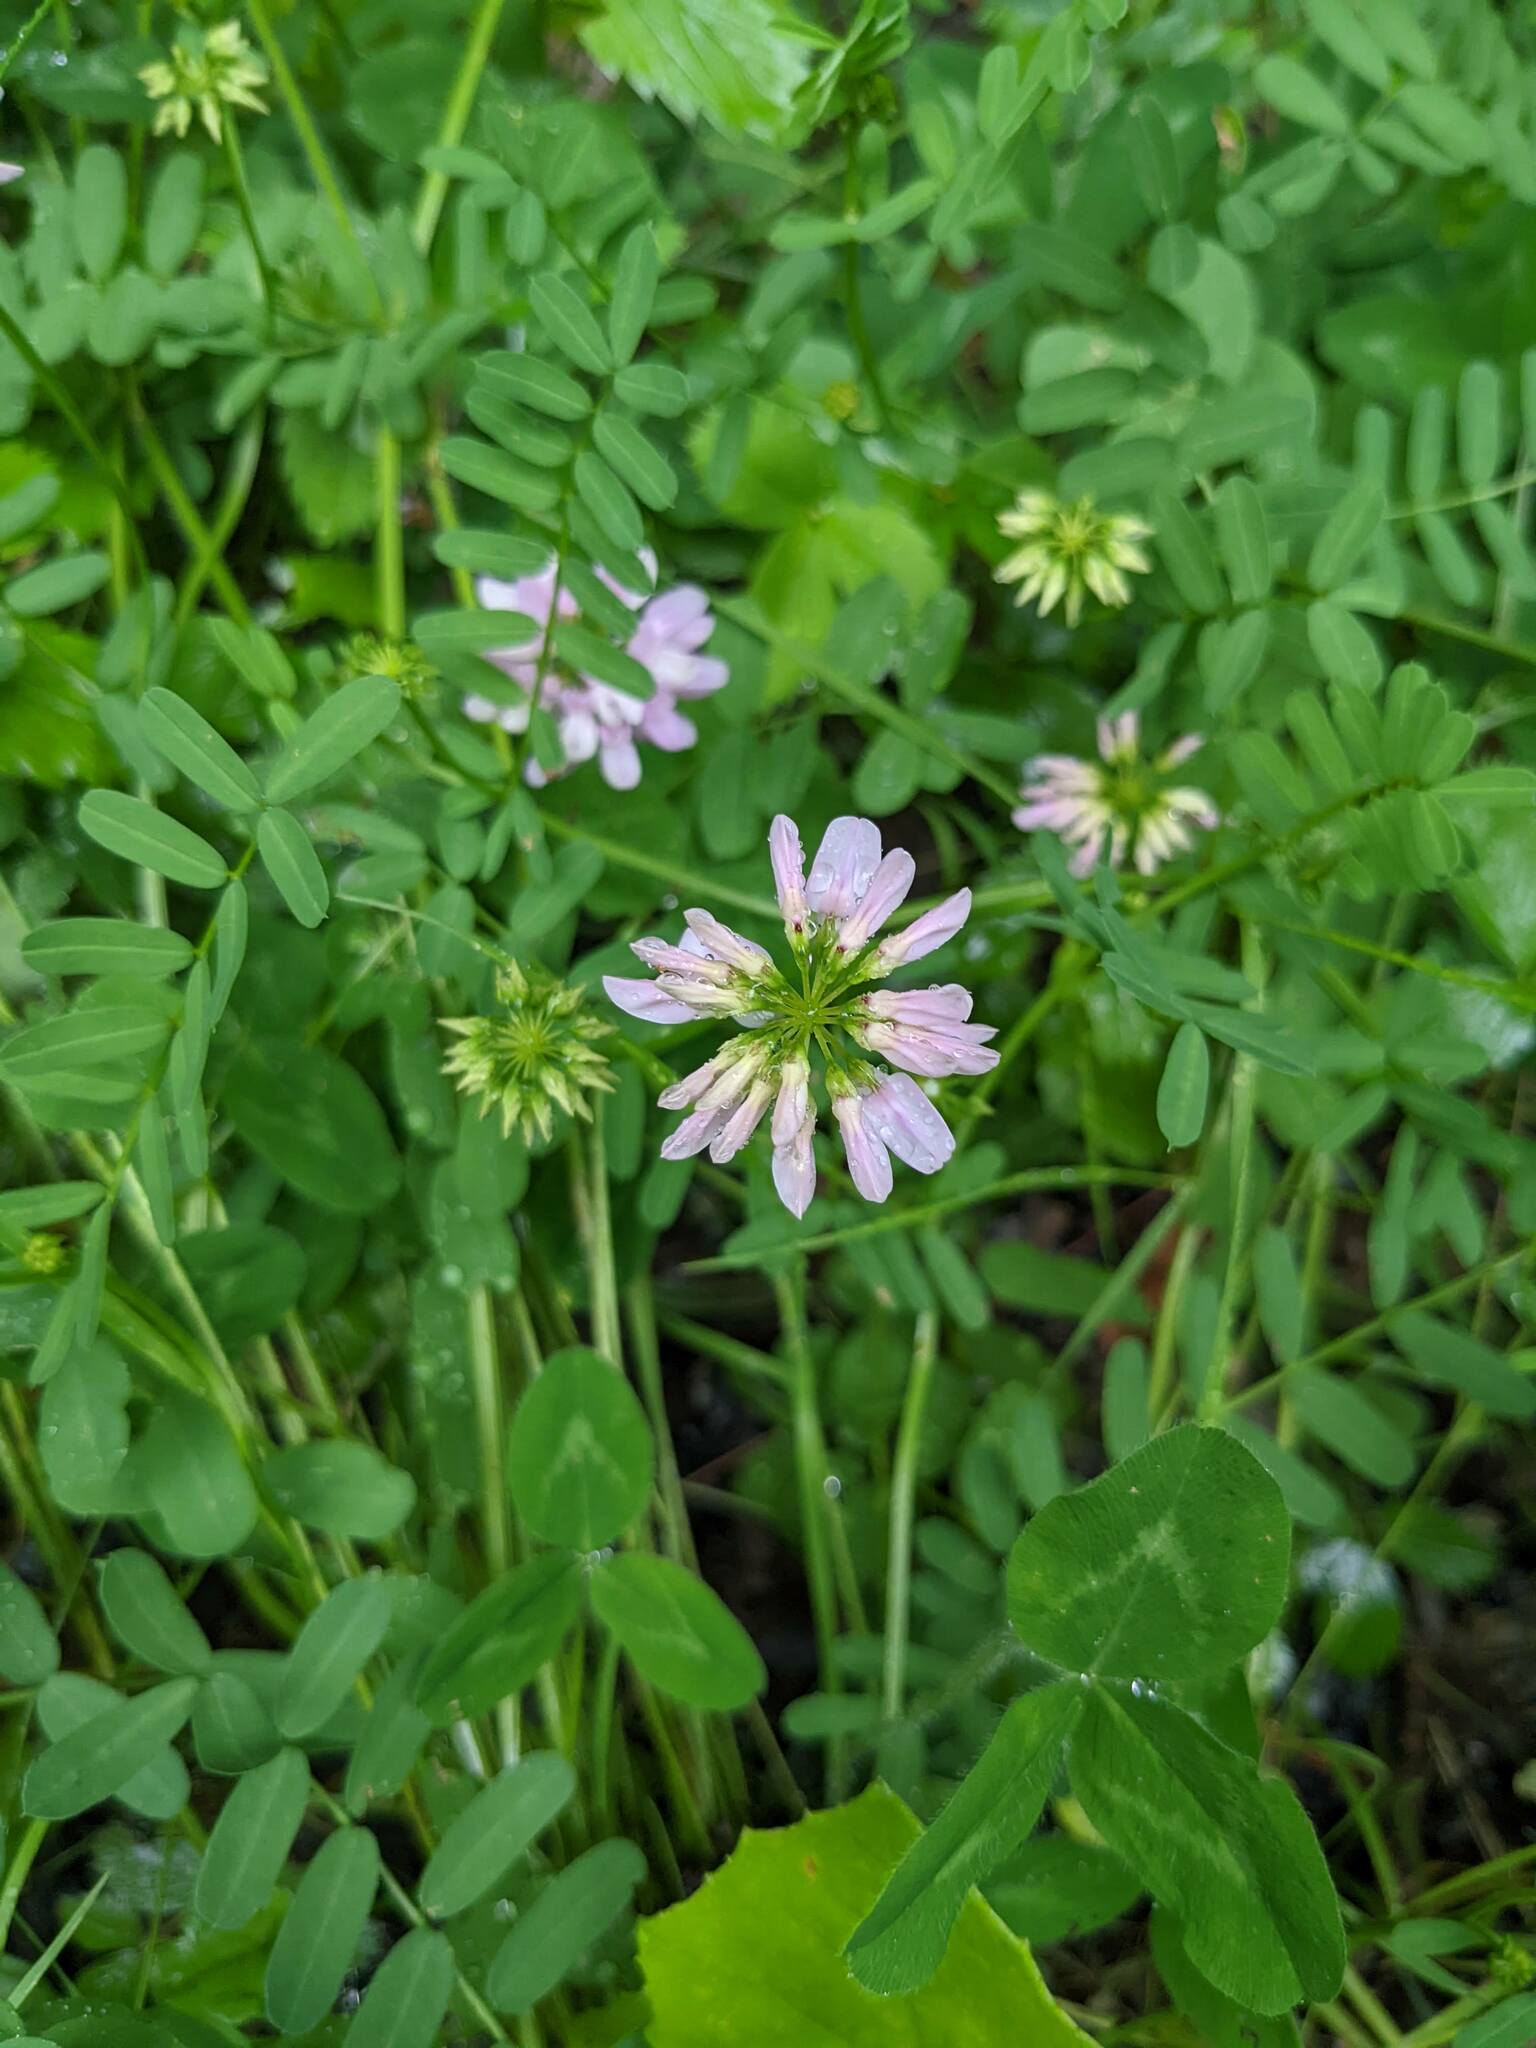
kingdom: Plantae
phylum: Tracheophyta
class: Magnoliopsida
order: Fabales
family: Fabaceae
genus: Coronilla
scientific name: Coronilla varia
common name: Crownvetch
